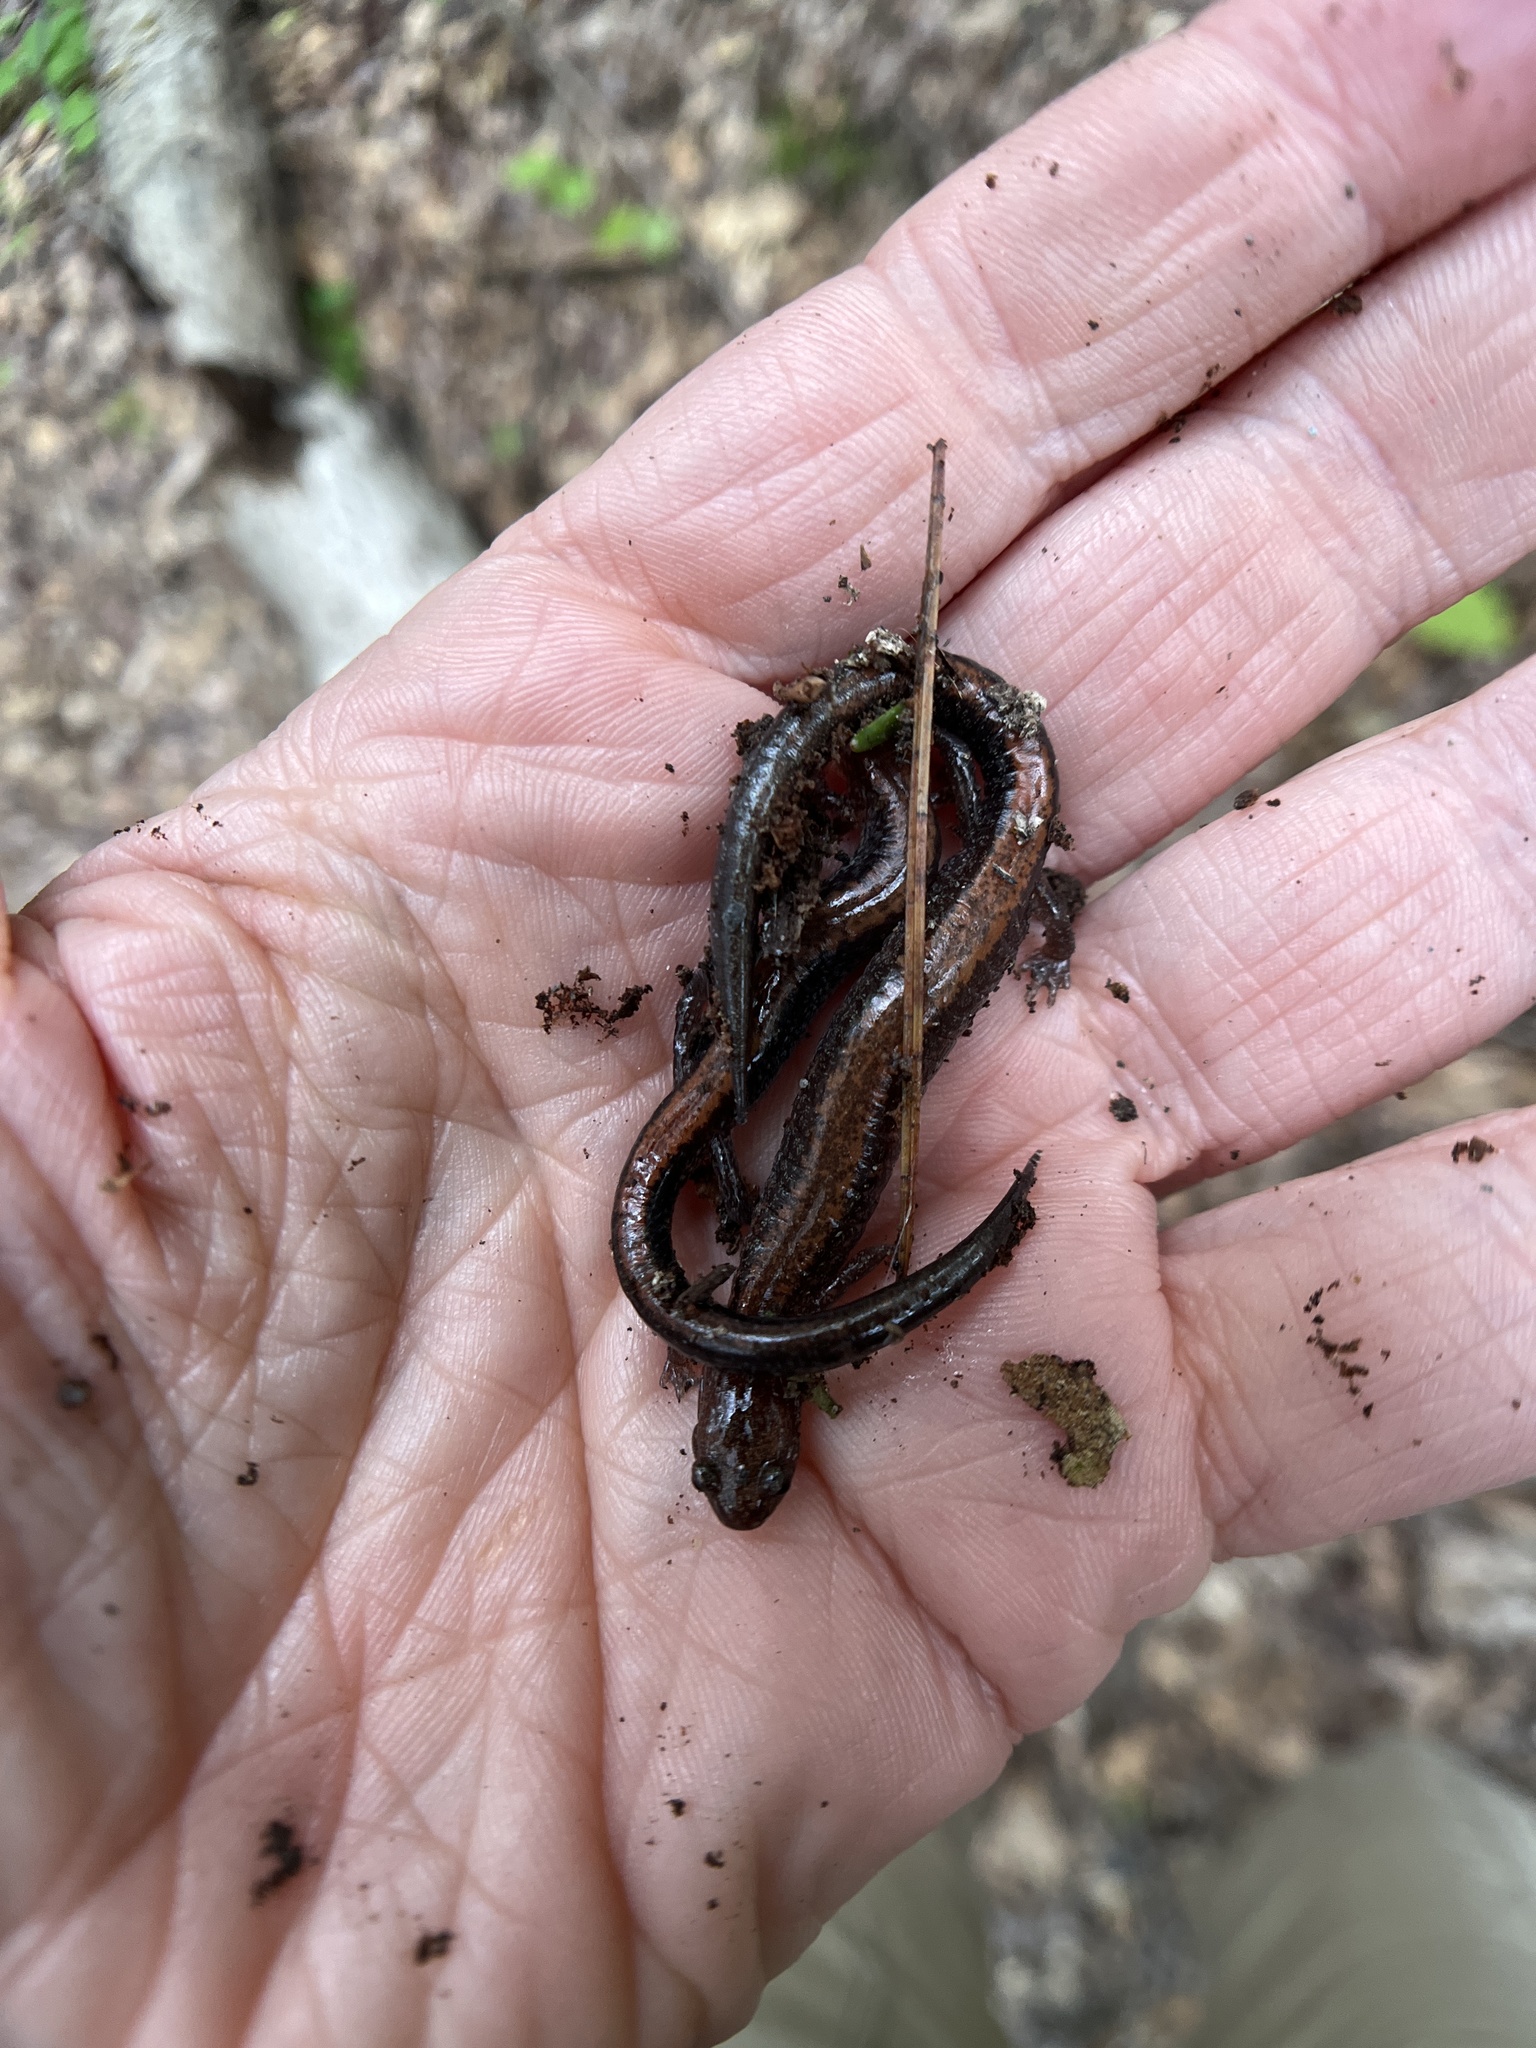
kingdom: Animalia
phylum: Chordata
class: Amphibia
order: Caudata
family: Plethodontidae
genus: Plethodon
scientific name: Plethodon cinereus
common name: Redback salamander
